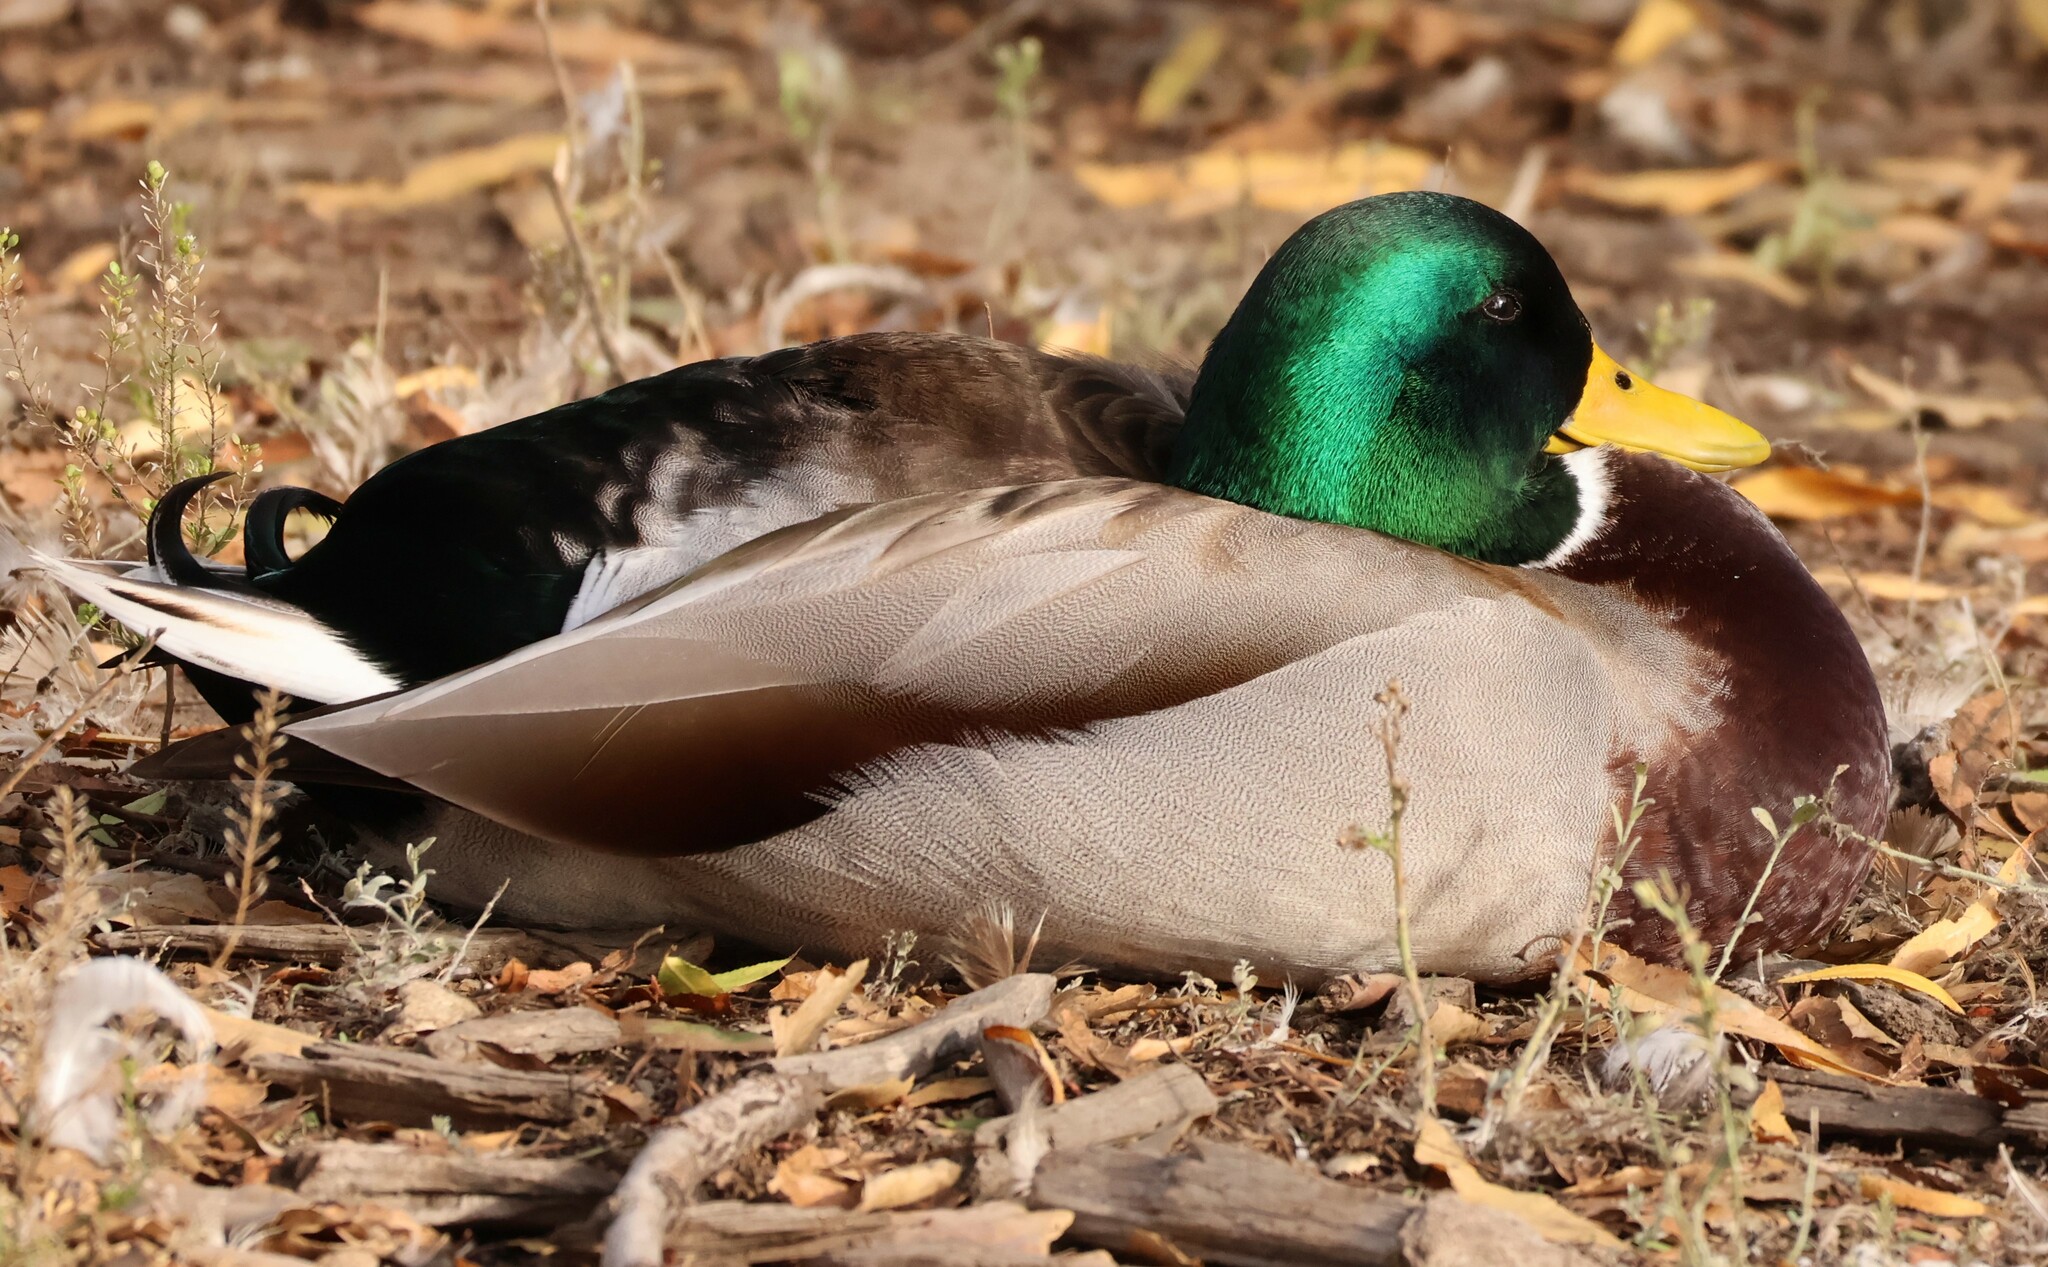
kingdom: Animalia
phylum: Chordata
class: Aves
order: Anseriformes
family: Anatidae
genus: Anas
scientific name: Anas platyrhynchos
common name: Mallard
